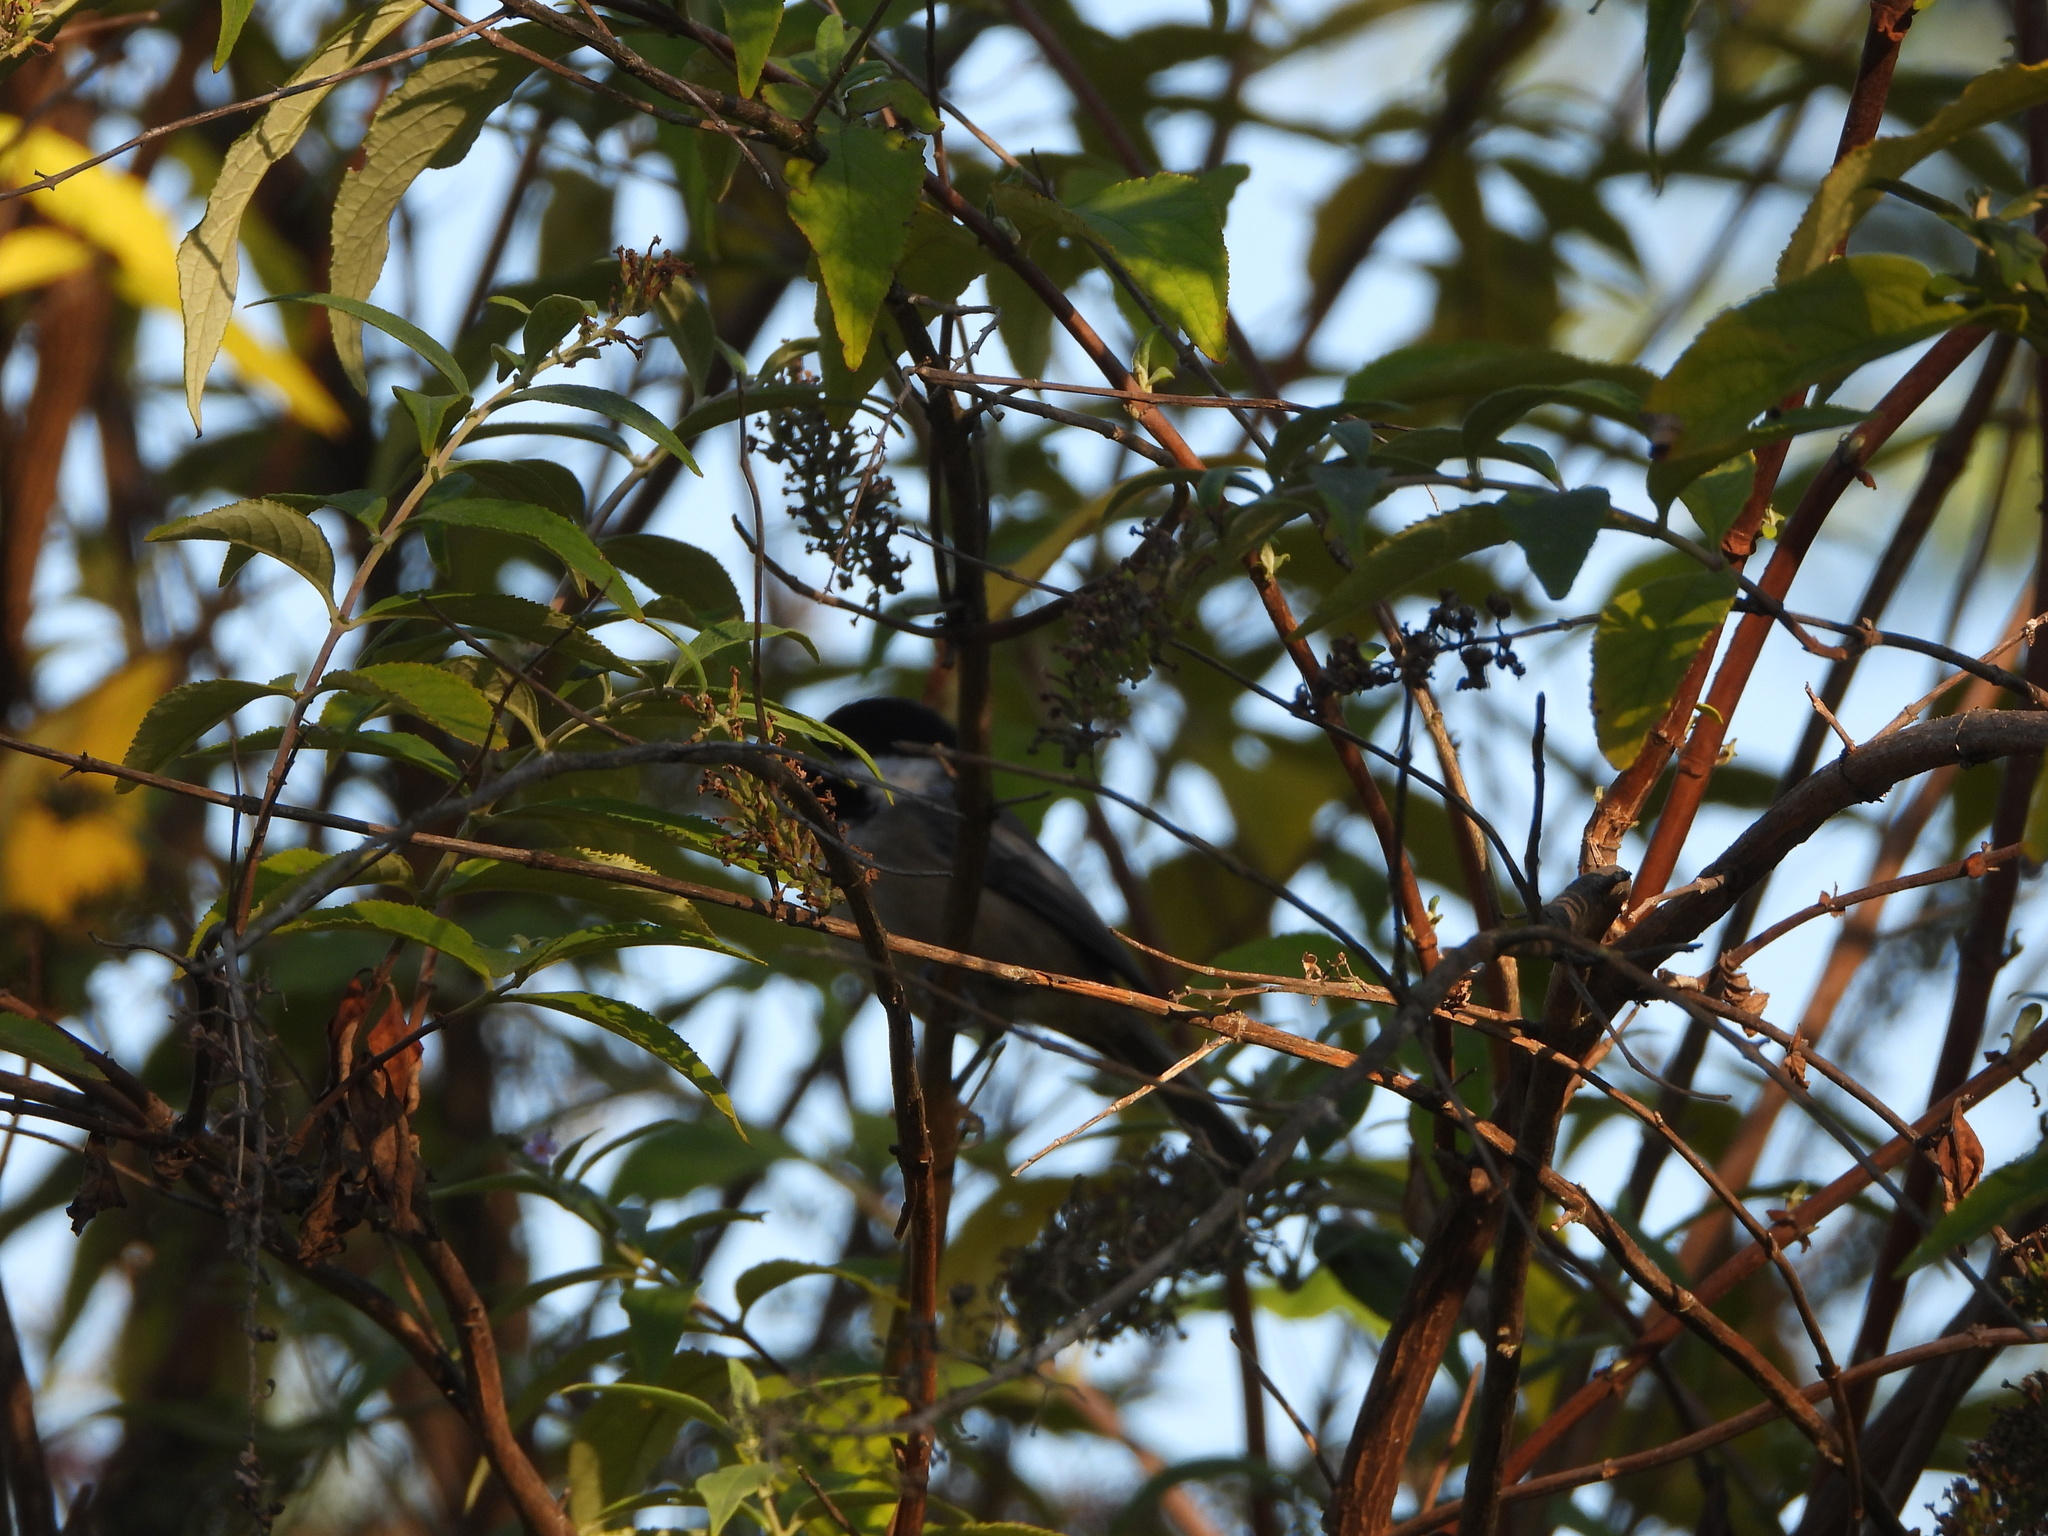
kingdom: Animalia
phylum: Chordata
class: Aves
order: Passeriformes
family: Paridae
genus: Poecile
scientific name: Poecile atricapillus
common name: Black-capped chickadee
